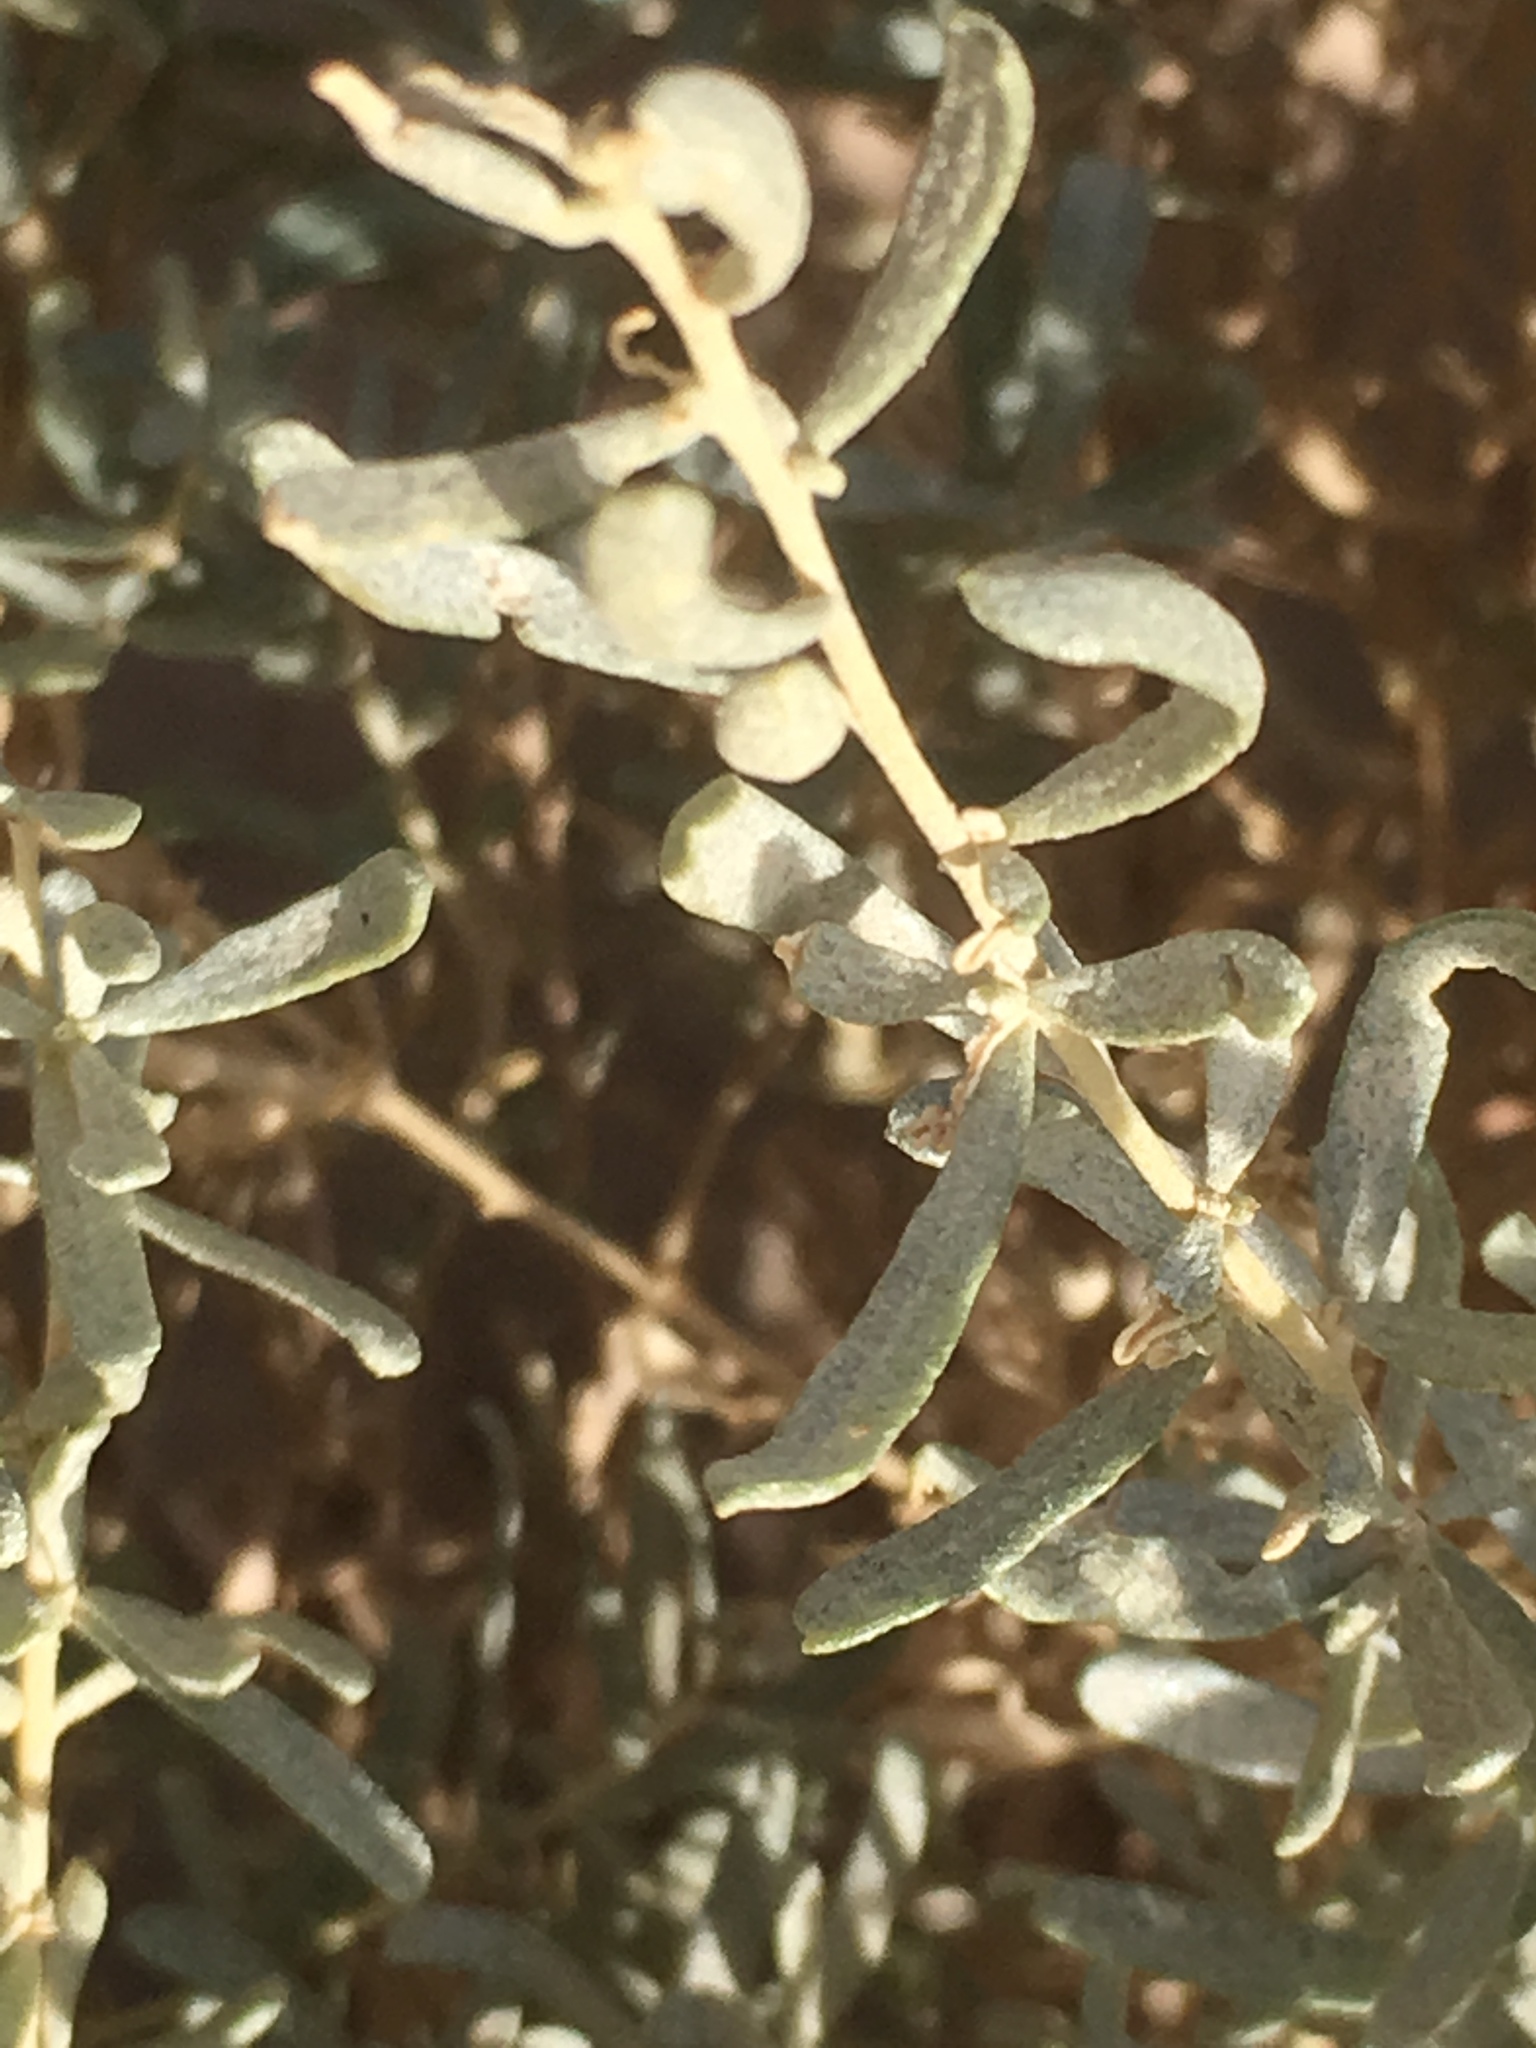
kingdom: Plantae
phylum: Tracheophyta
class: Magnoliopsida
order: Caryophyllales
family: Amaranthaceae
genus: Atriplex
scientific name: Atriplex canescens
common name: Four-wing saltbush
